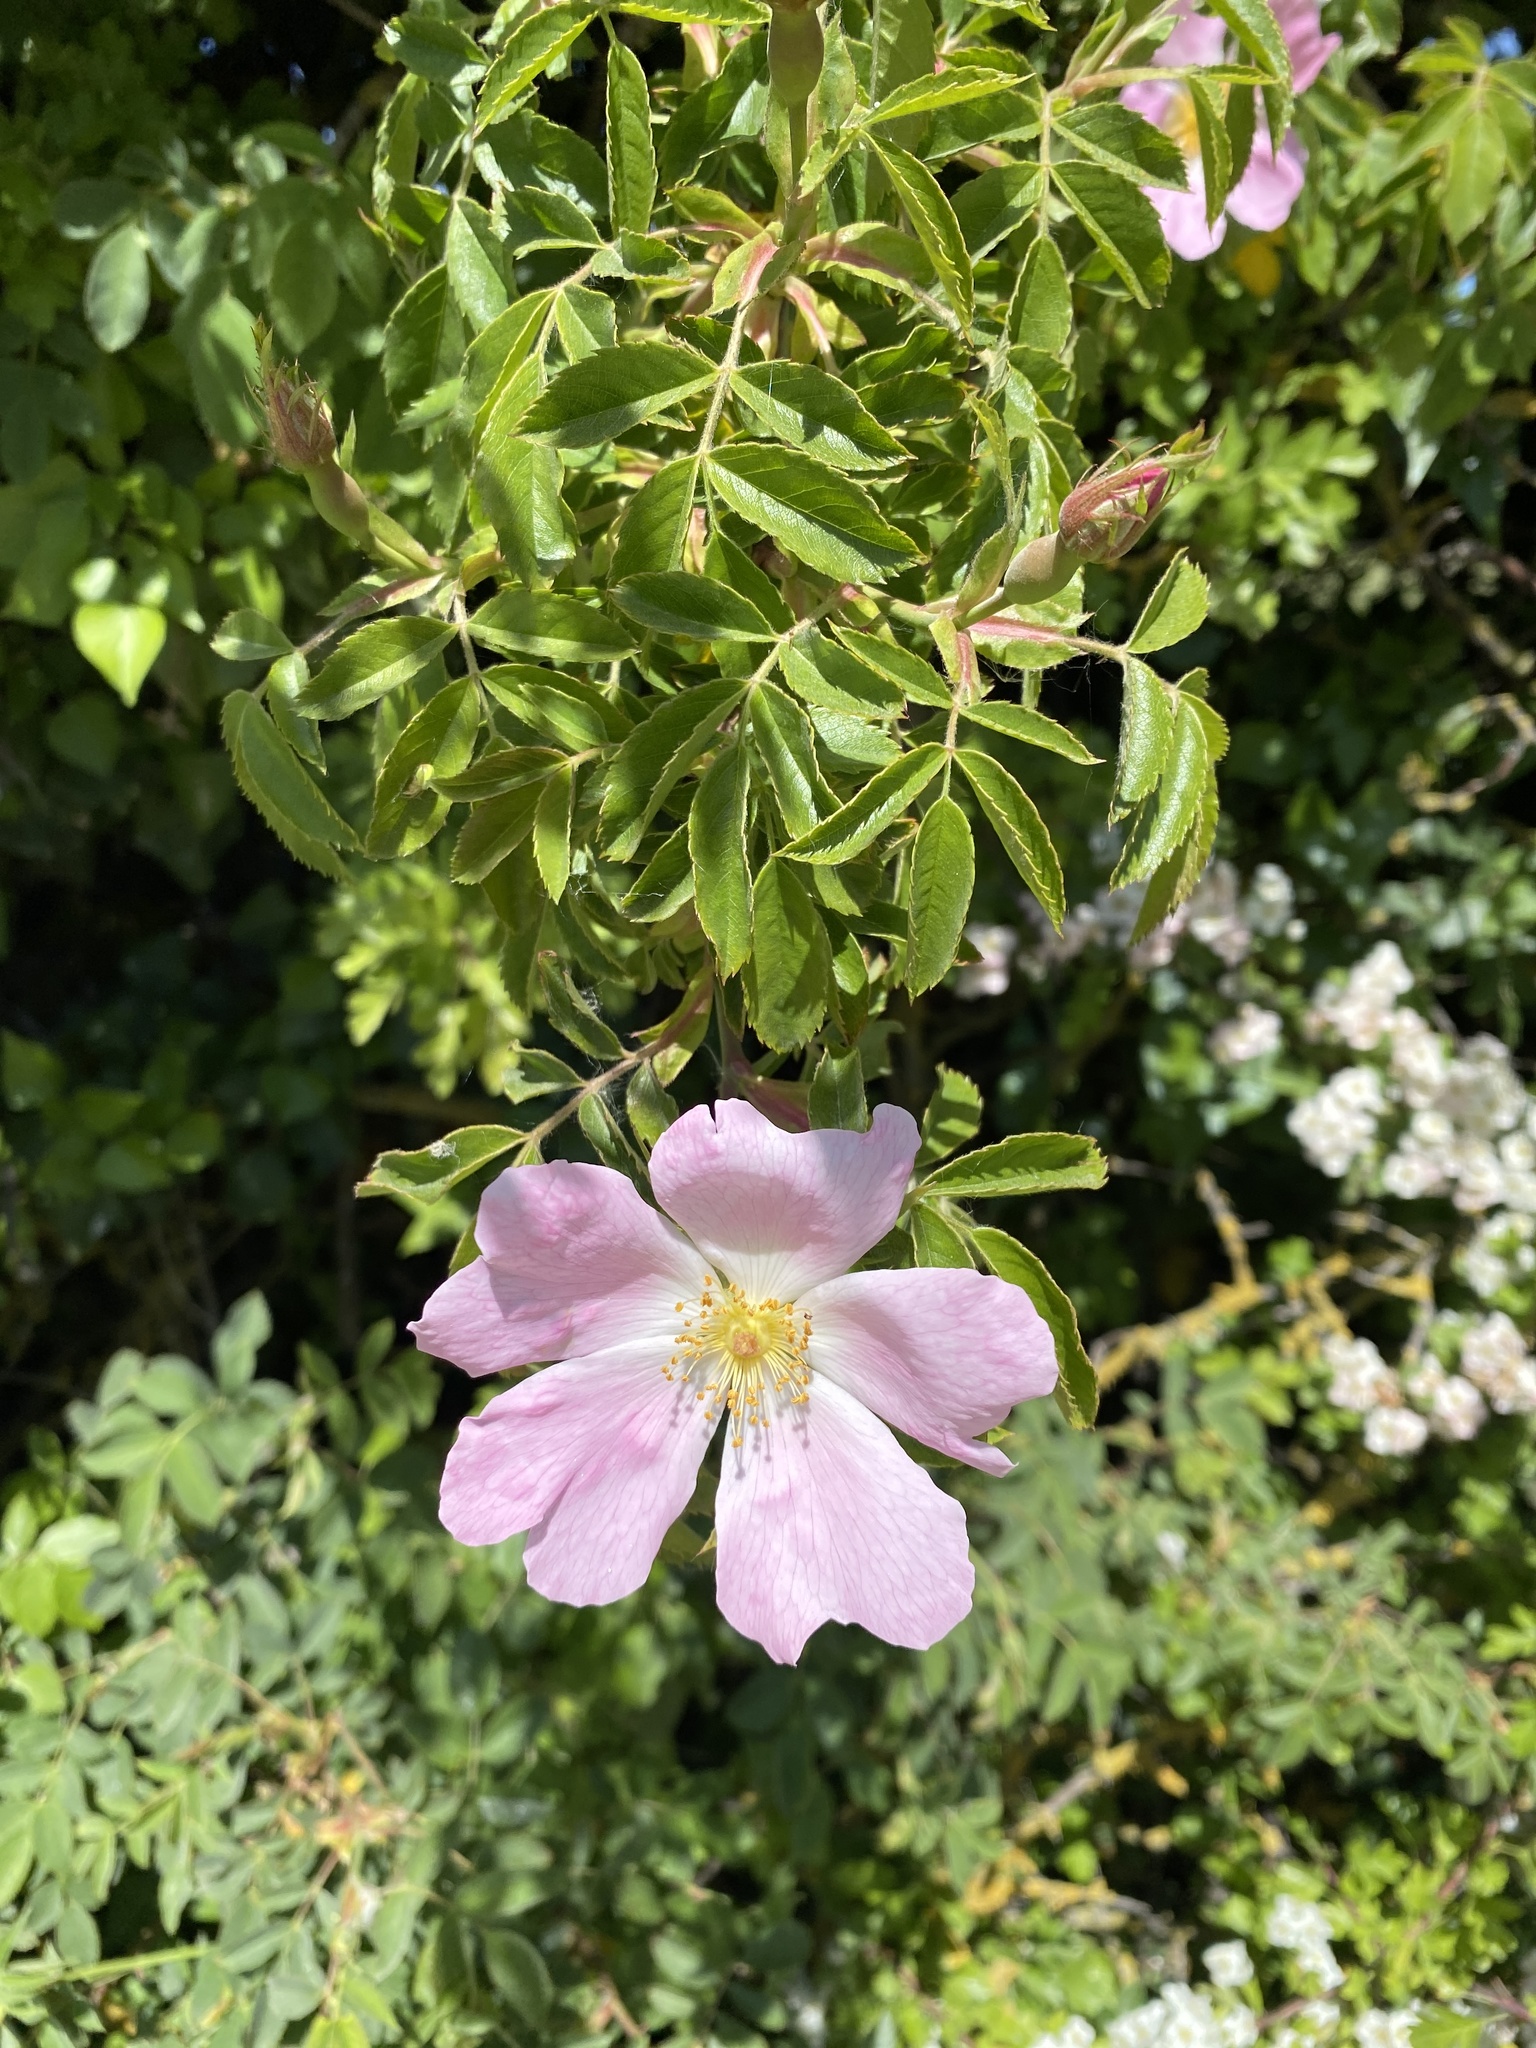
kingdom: Plantae
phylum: Tracheophyta
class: Magnoliopsida
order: Rosales
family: Rosaceae
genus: Rosa
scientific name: Rosa canina
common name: Dog rose
